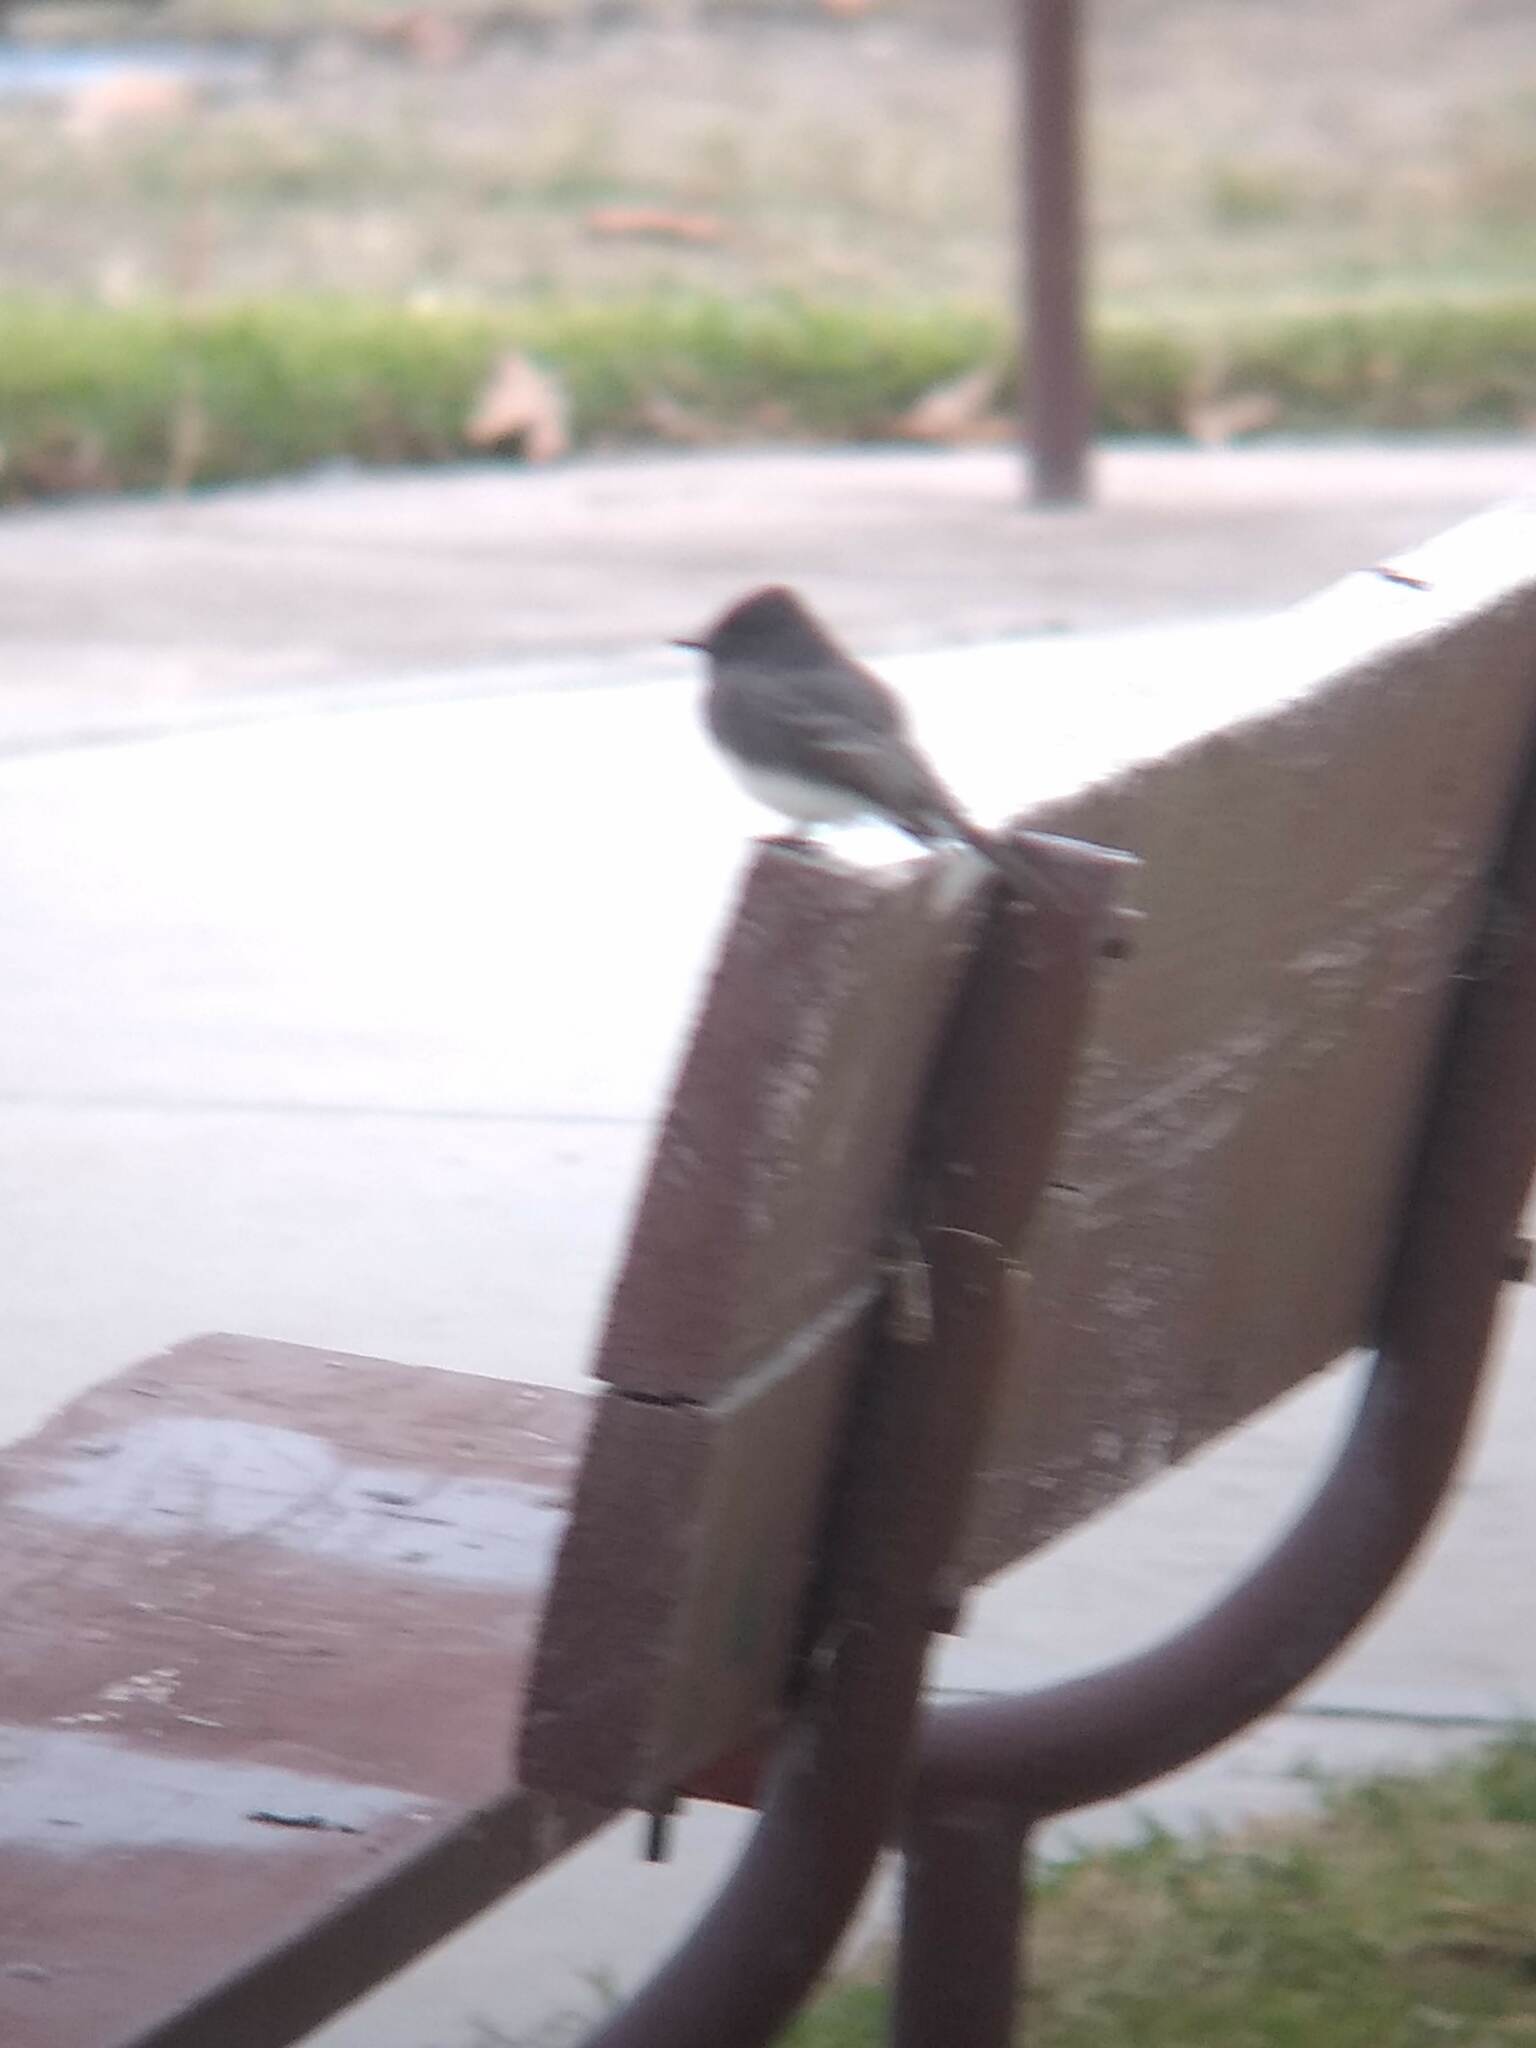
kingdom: Animalia
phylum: Chordata
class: Aves
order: Passeriformes
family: Tyrannidae
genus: Sayornis
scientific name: Sayornis nigricans
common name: Black phoebe
